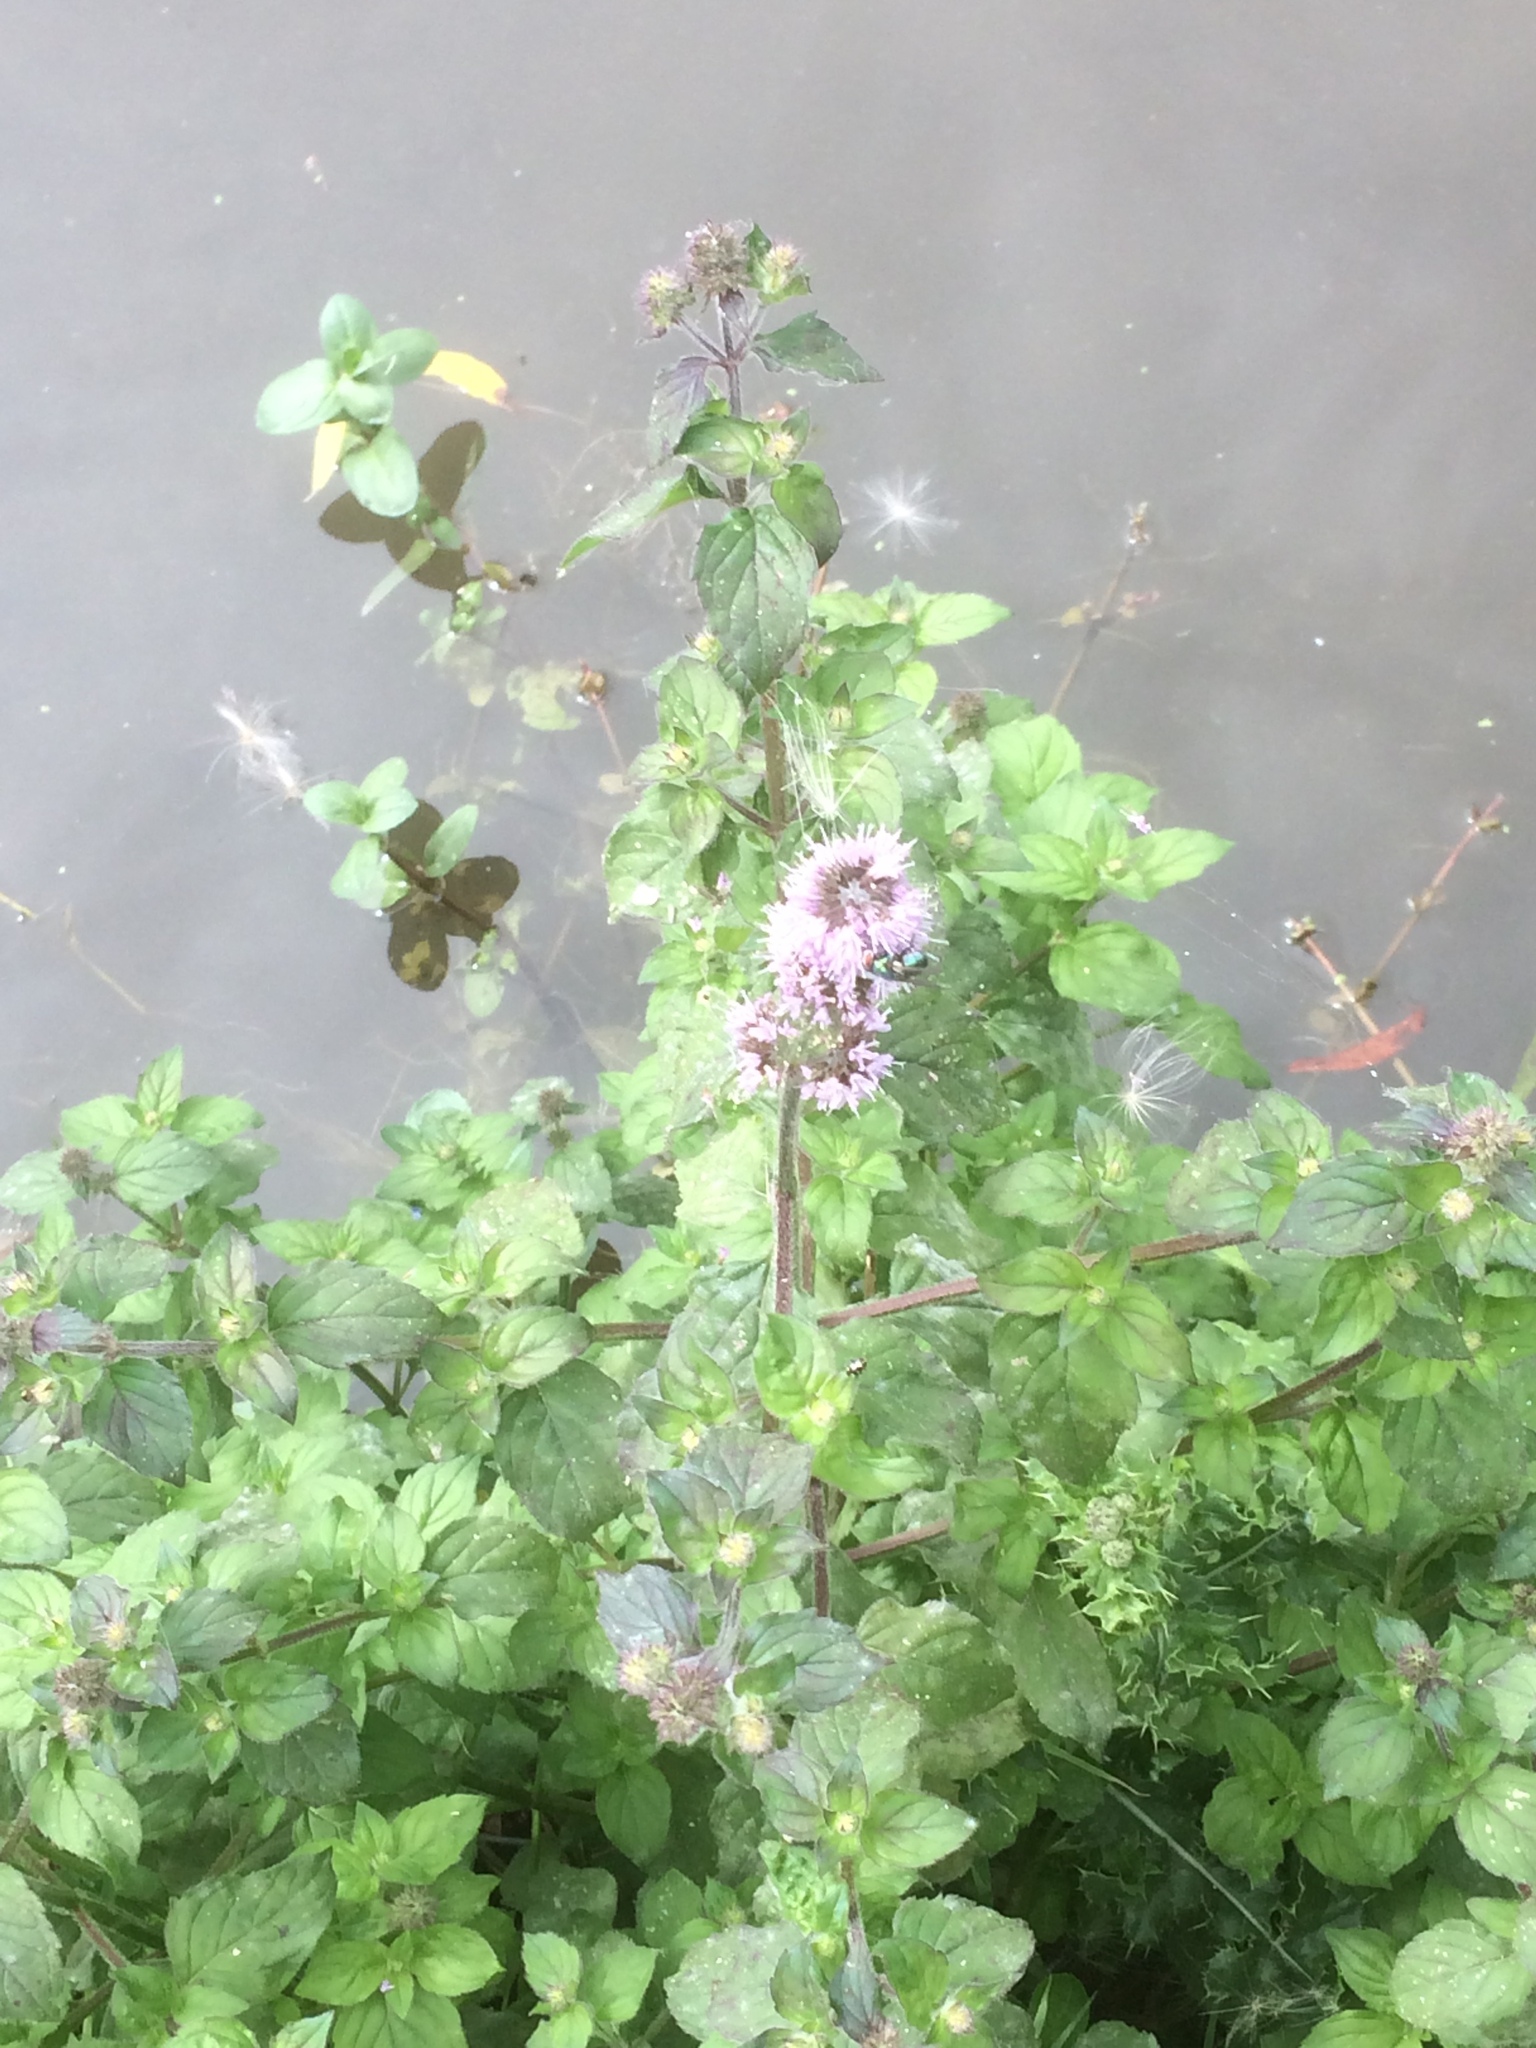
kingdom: Plantae
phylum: Tracheophyta
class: Magnoliopsida
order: Lamiales
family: Lamiaceae
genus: Mentha
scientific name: Mentha aquatica
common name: Water mint
